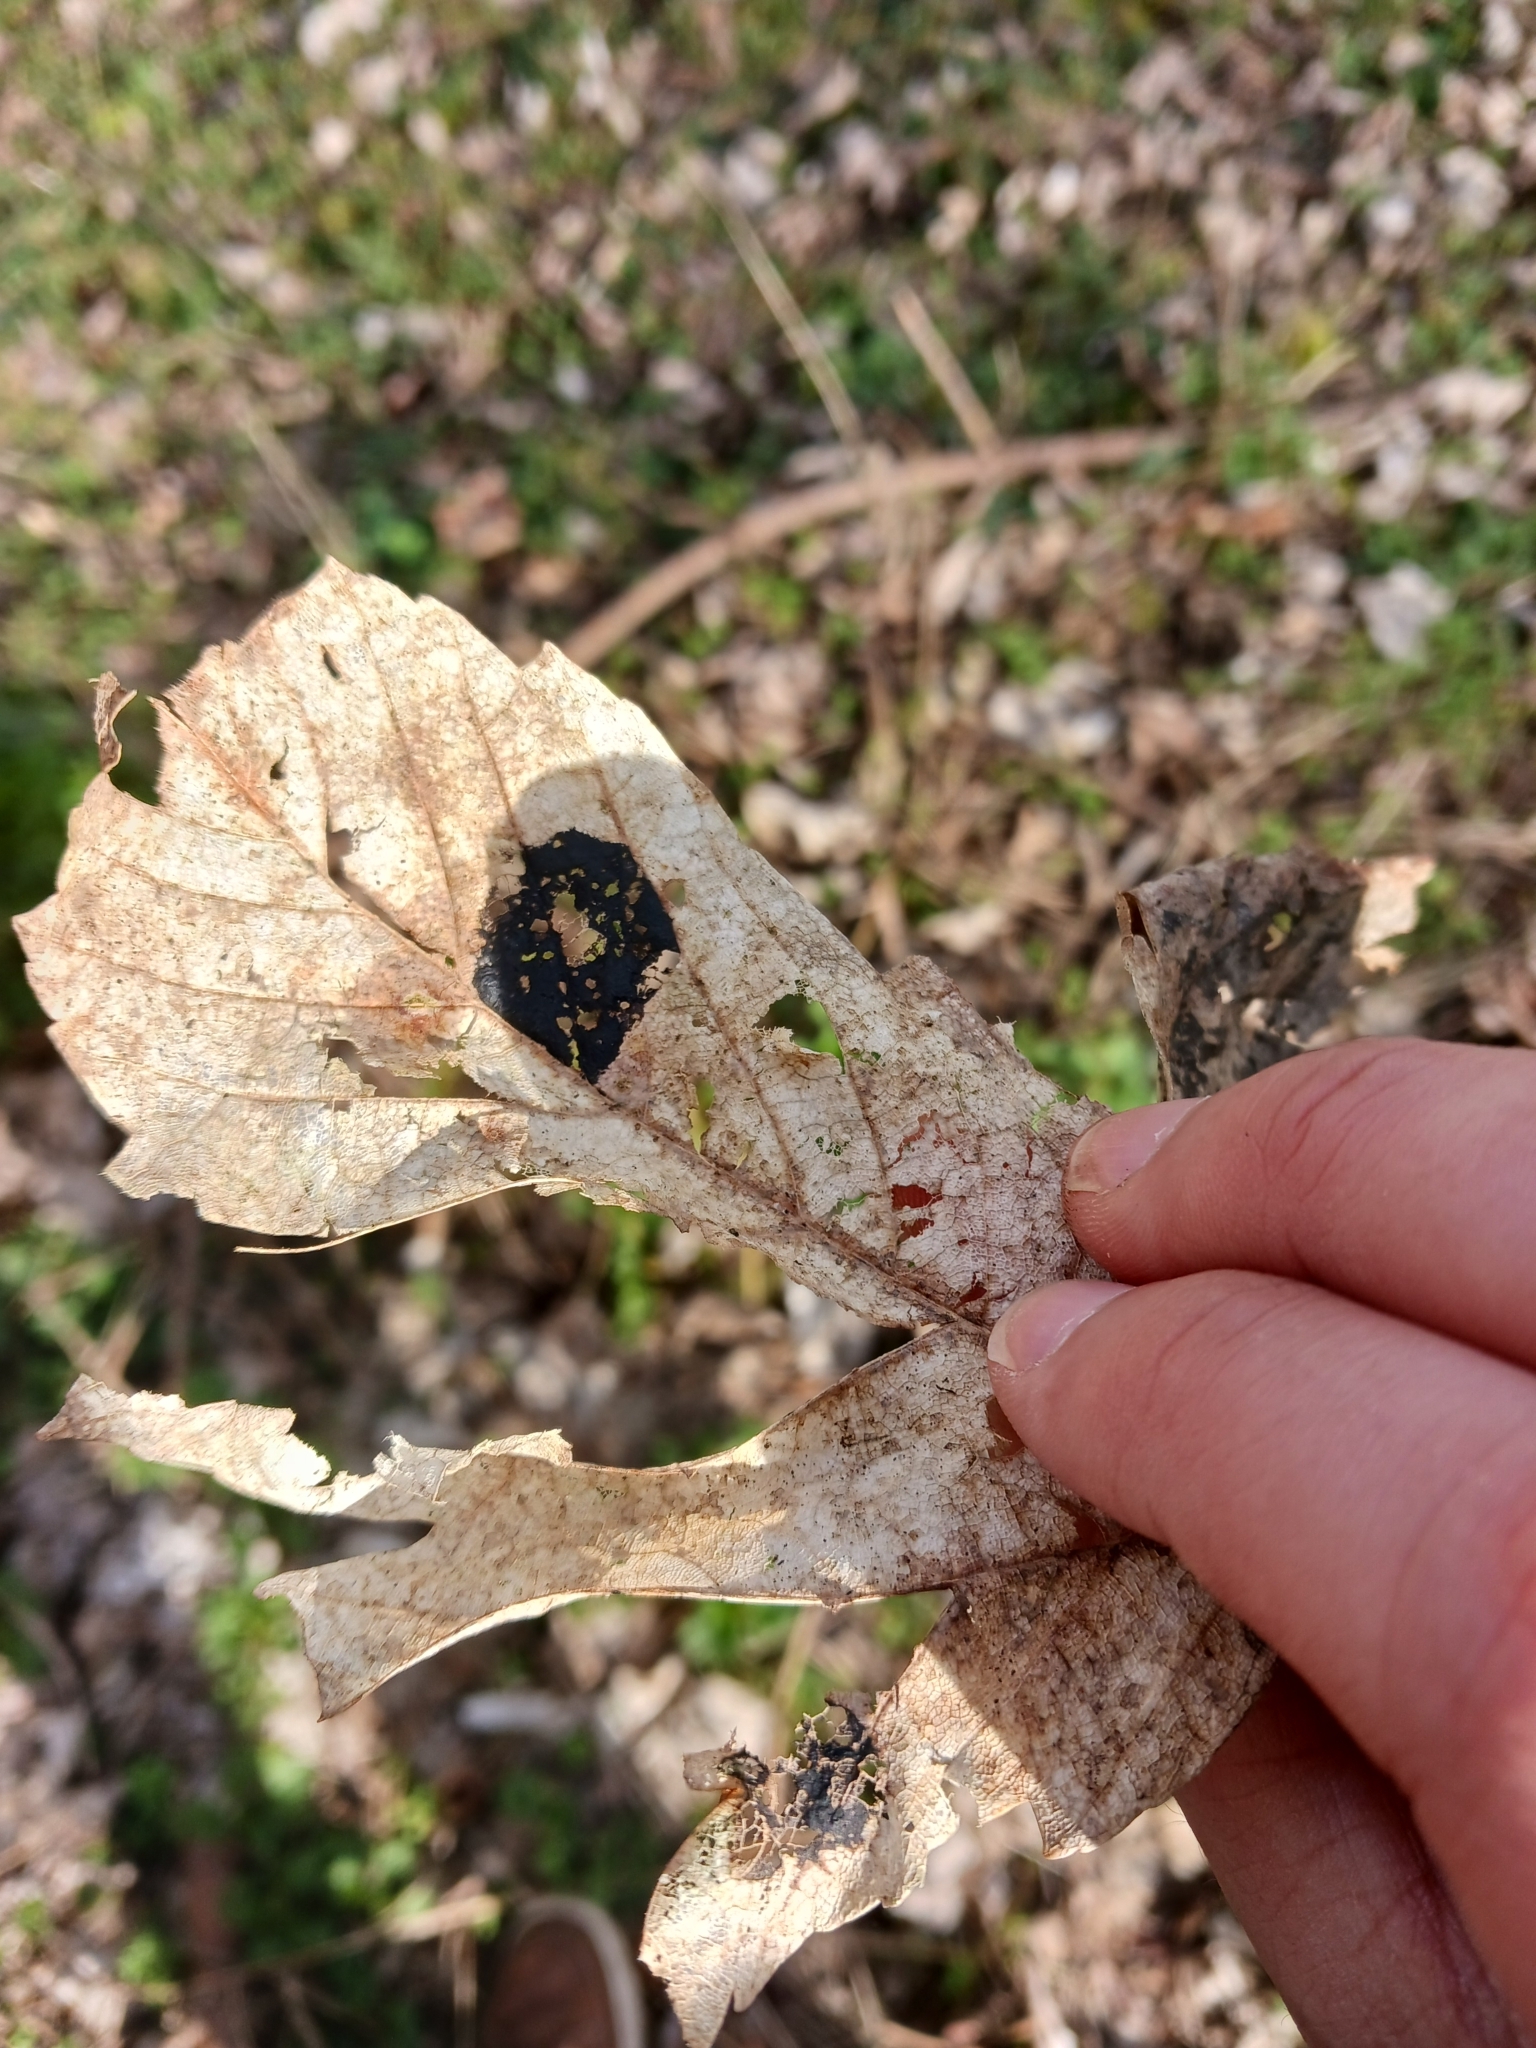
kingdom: Fungi
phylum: Ascomycota
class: Leotiomycetes
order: Rhytismatales
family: Rhytismataceae
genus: Rhytisma
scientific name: Rhytisma acerinum
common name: European tar spot
